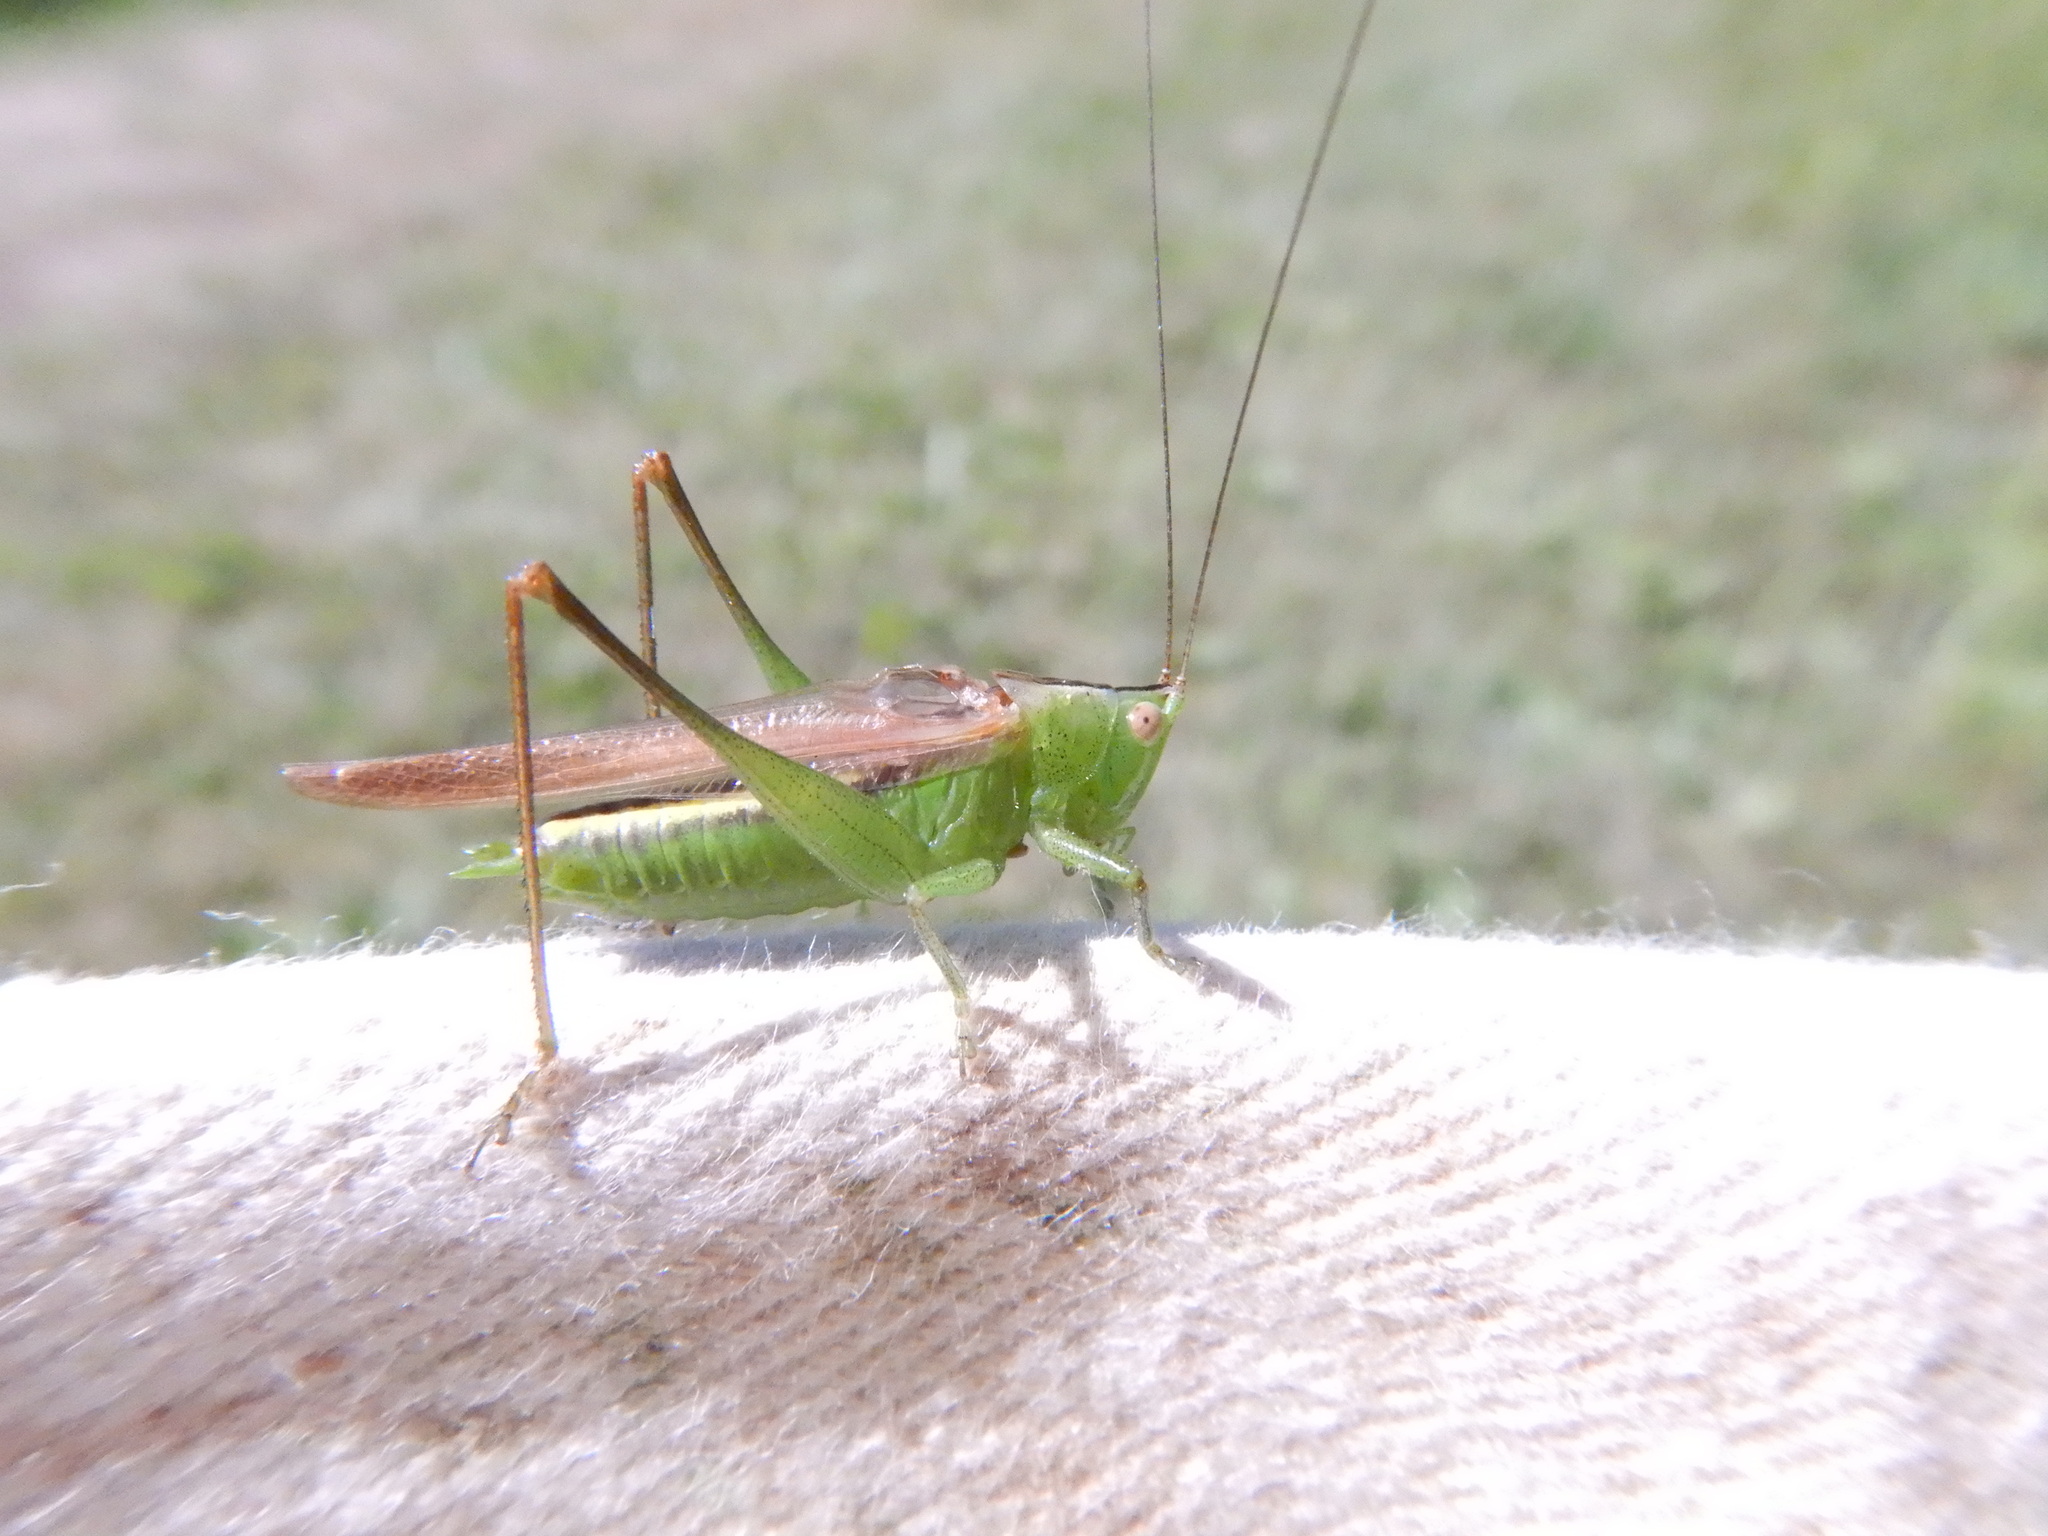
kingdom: Animalia
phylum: Arthropoda
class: Insecta
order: Orthoptera
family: Tettigoniidae
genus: Conocephalus
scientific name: Conocephalus fasciatus
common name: Slender meadow katydid
